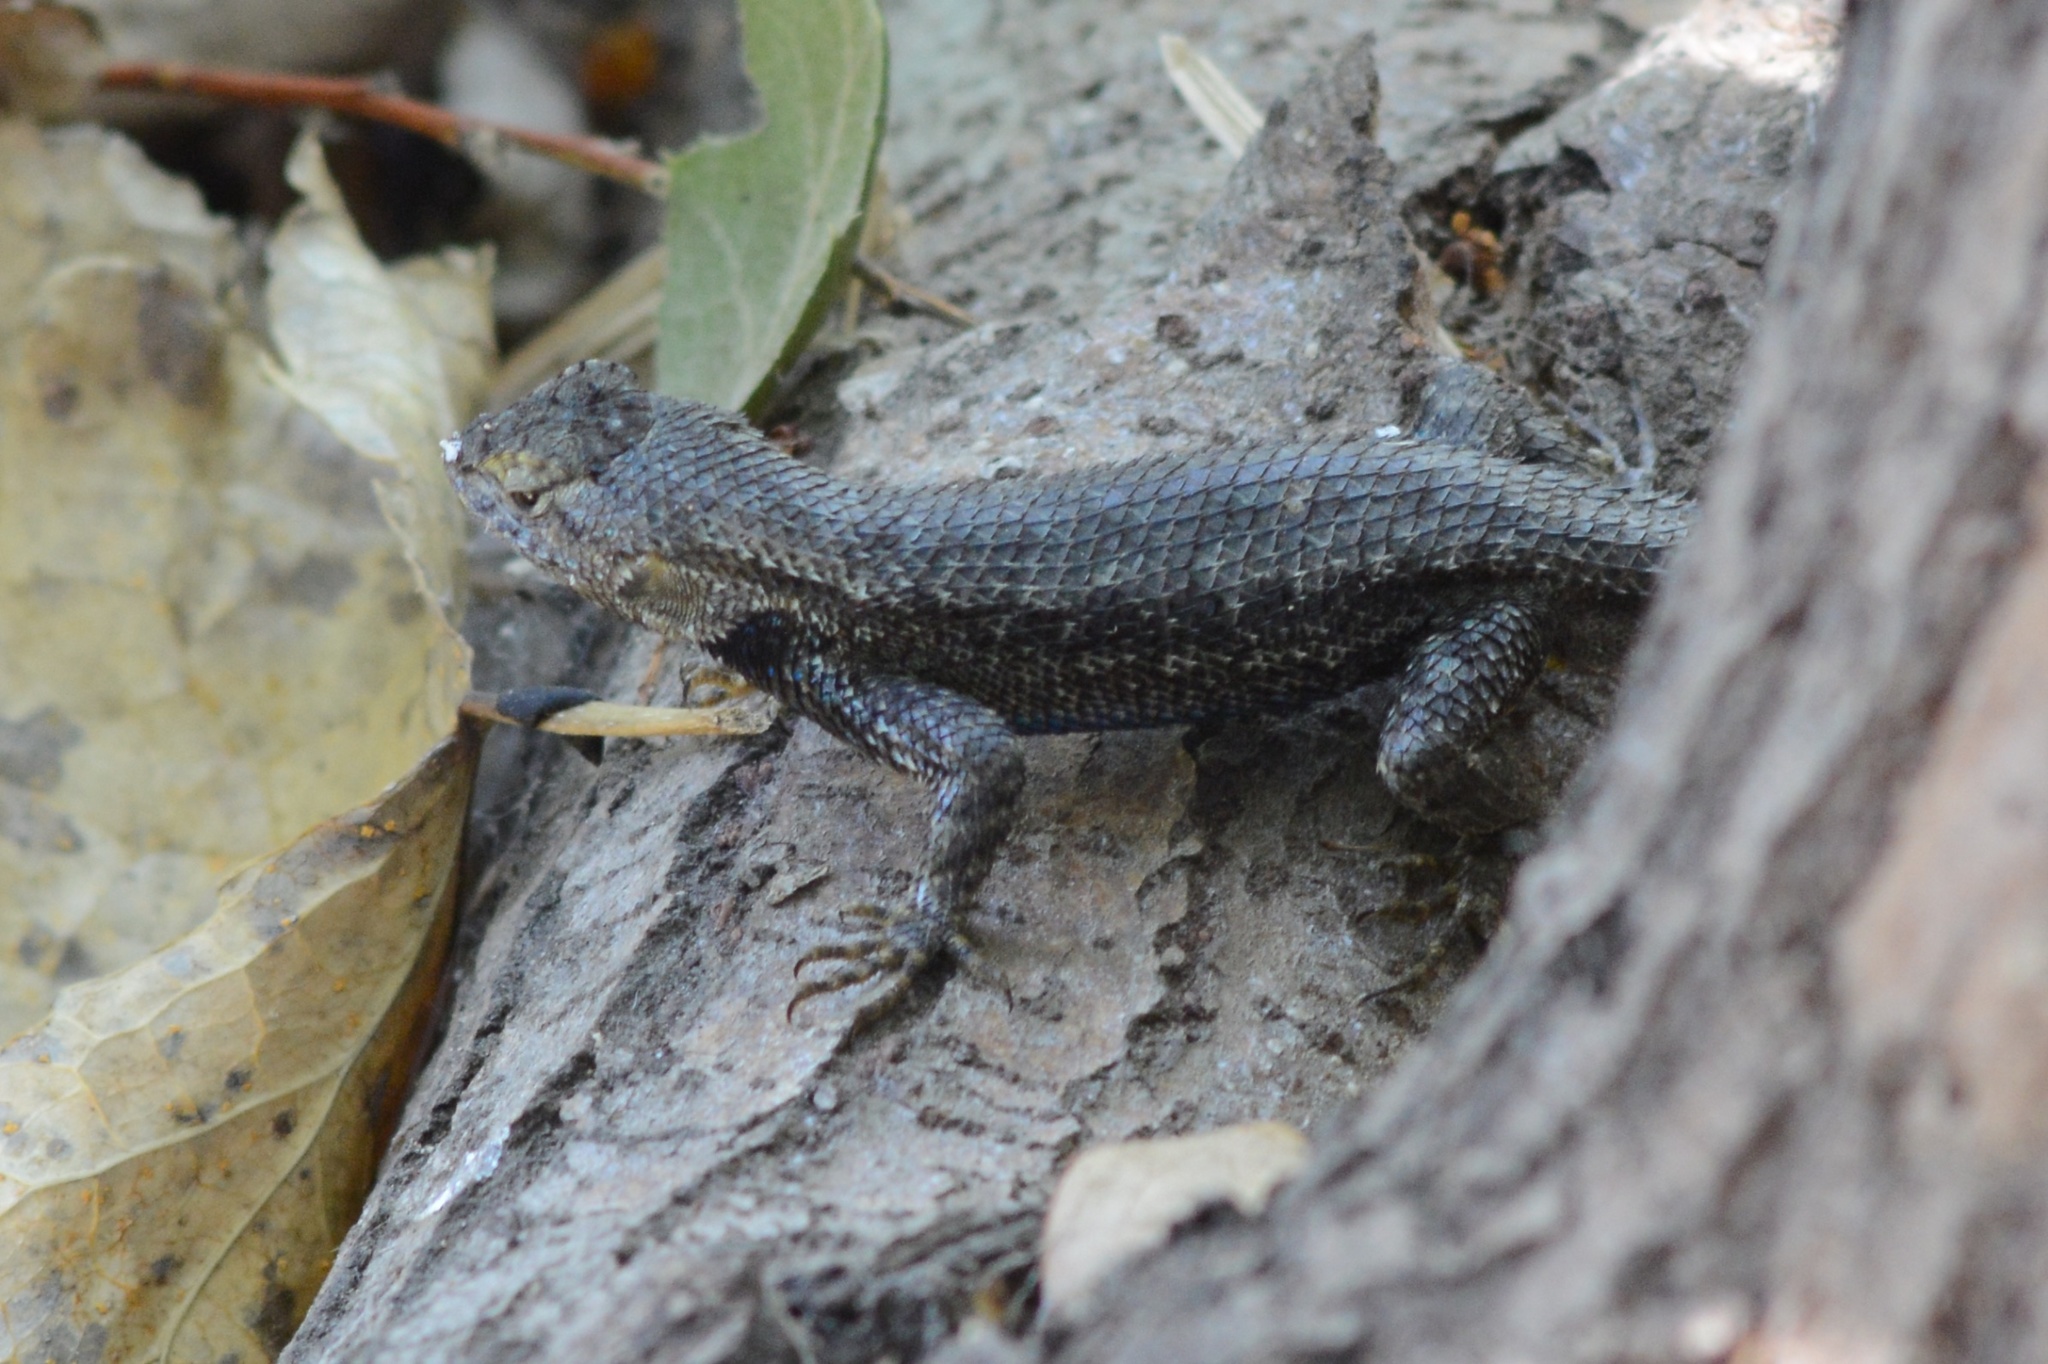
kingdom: Animalia
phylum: Chordata
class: Squamata
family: Phrynosomatidae
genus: Sceloporus
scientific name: Sceloporus occidentalis
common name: Western fence lizard
